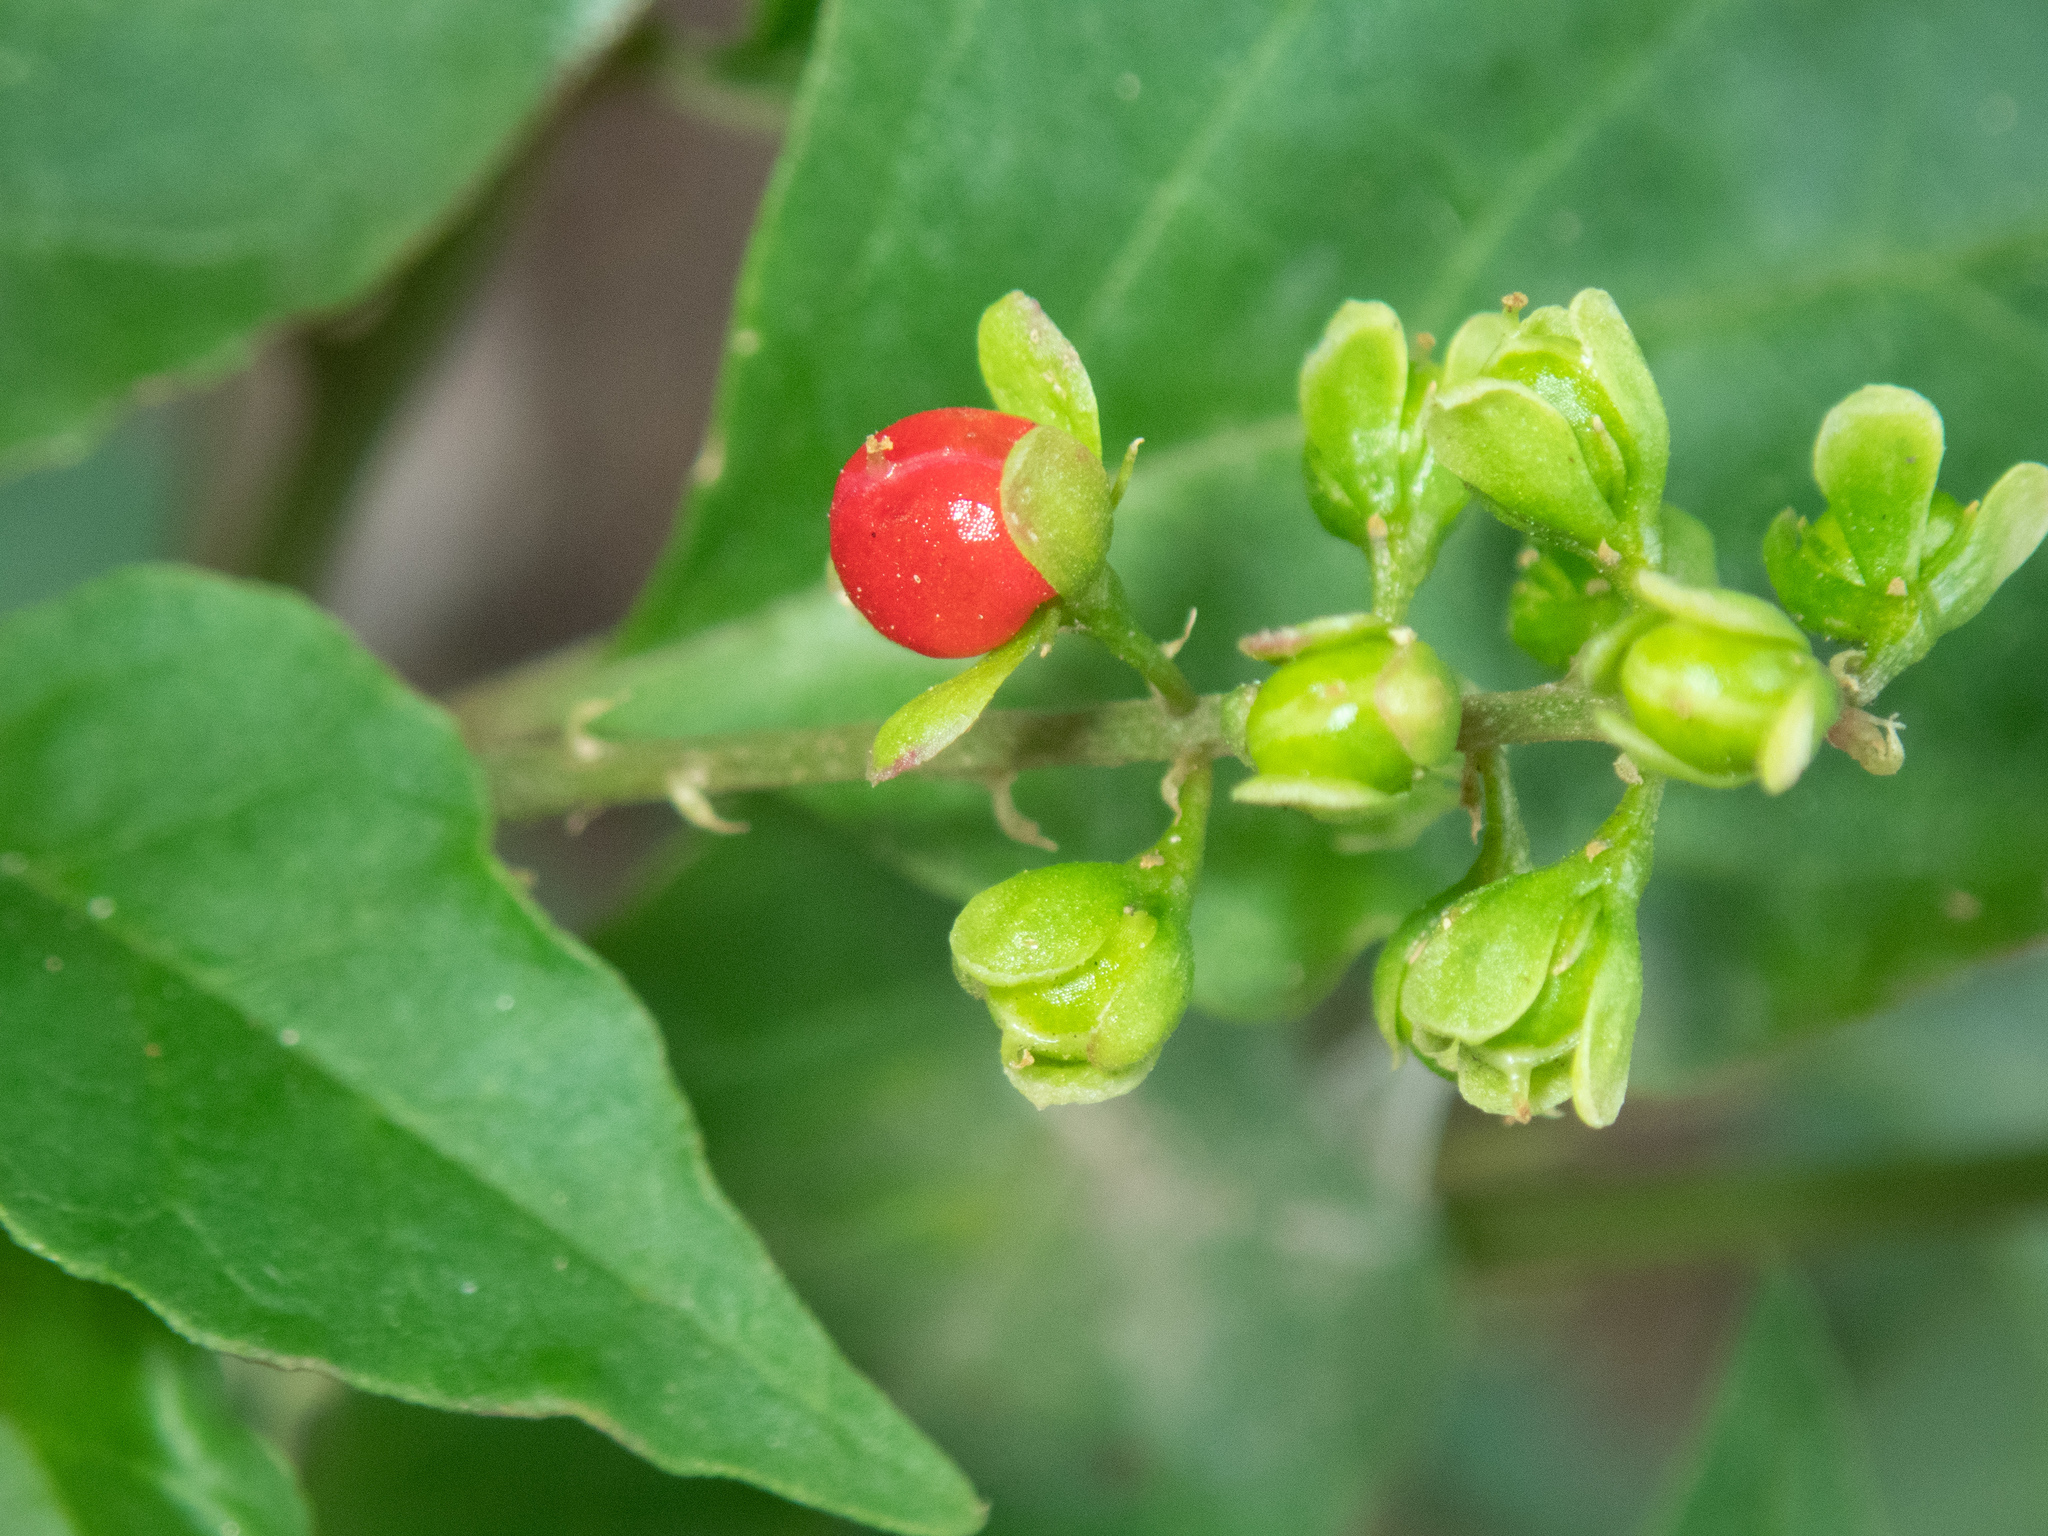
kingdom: Plantae
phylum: Tracheophyta
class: Magnoliopsida
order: Caryophyllales
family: Phytolaccaceae
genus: Rivina
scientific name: Rivina humilis
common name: Rougeplant
